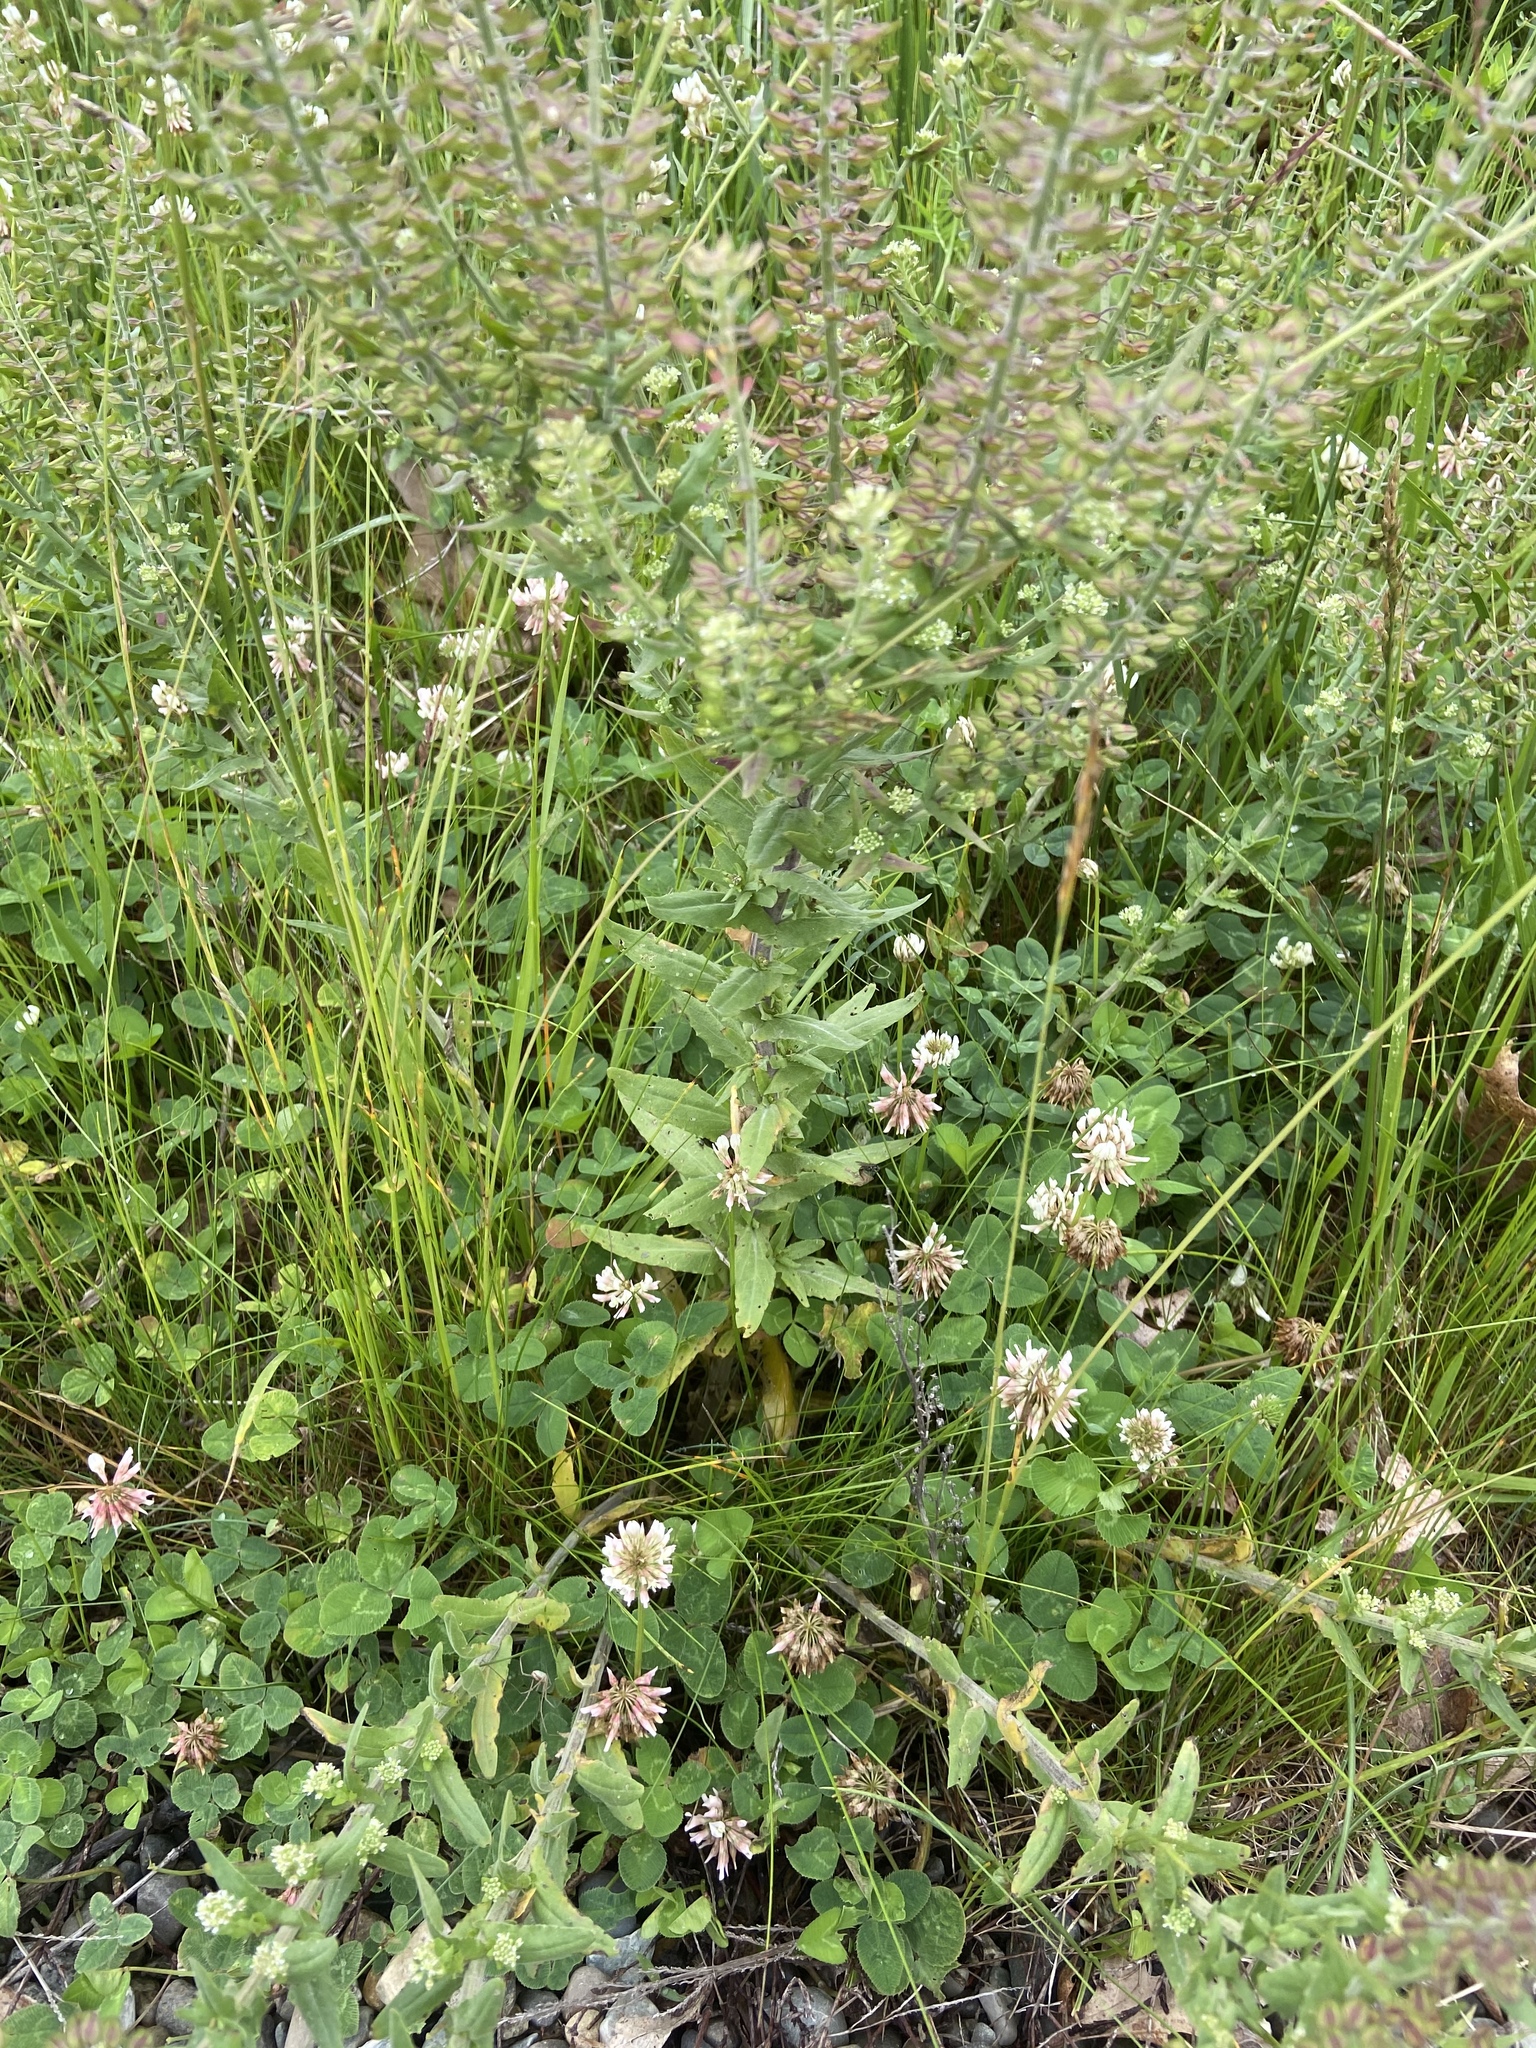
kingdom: Plantae
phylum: Tracheophyta
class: Magnoliopsida
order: Brassicales
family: Brassicaceae
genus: Lepidium
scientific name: Lepidium campestre
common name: Field pepperwort
